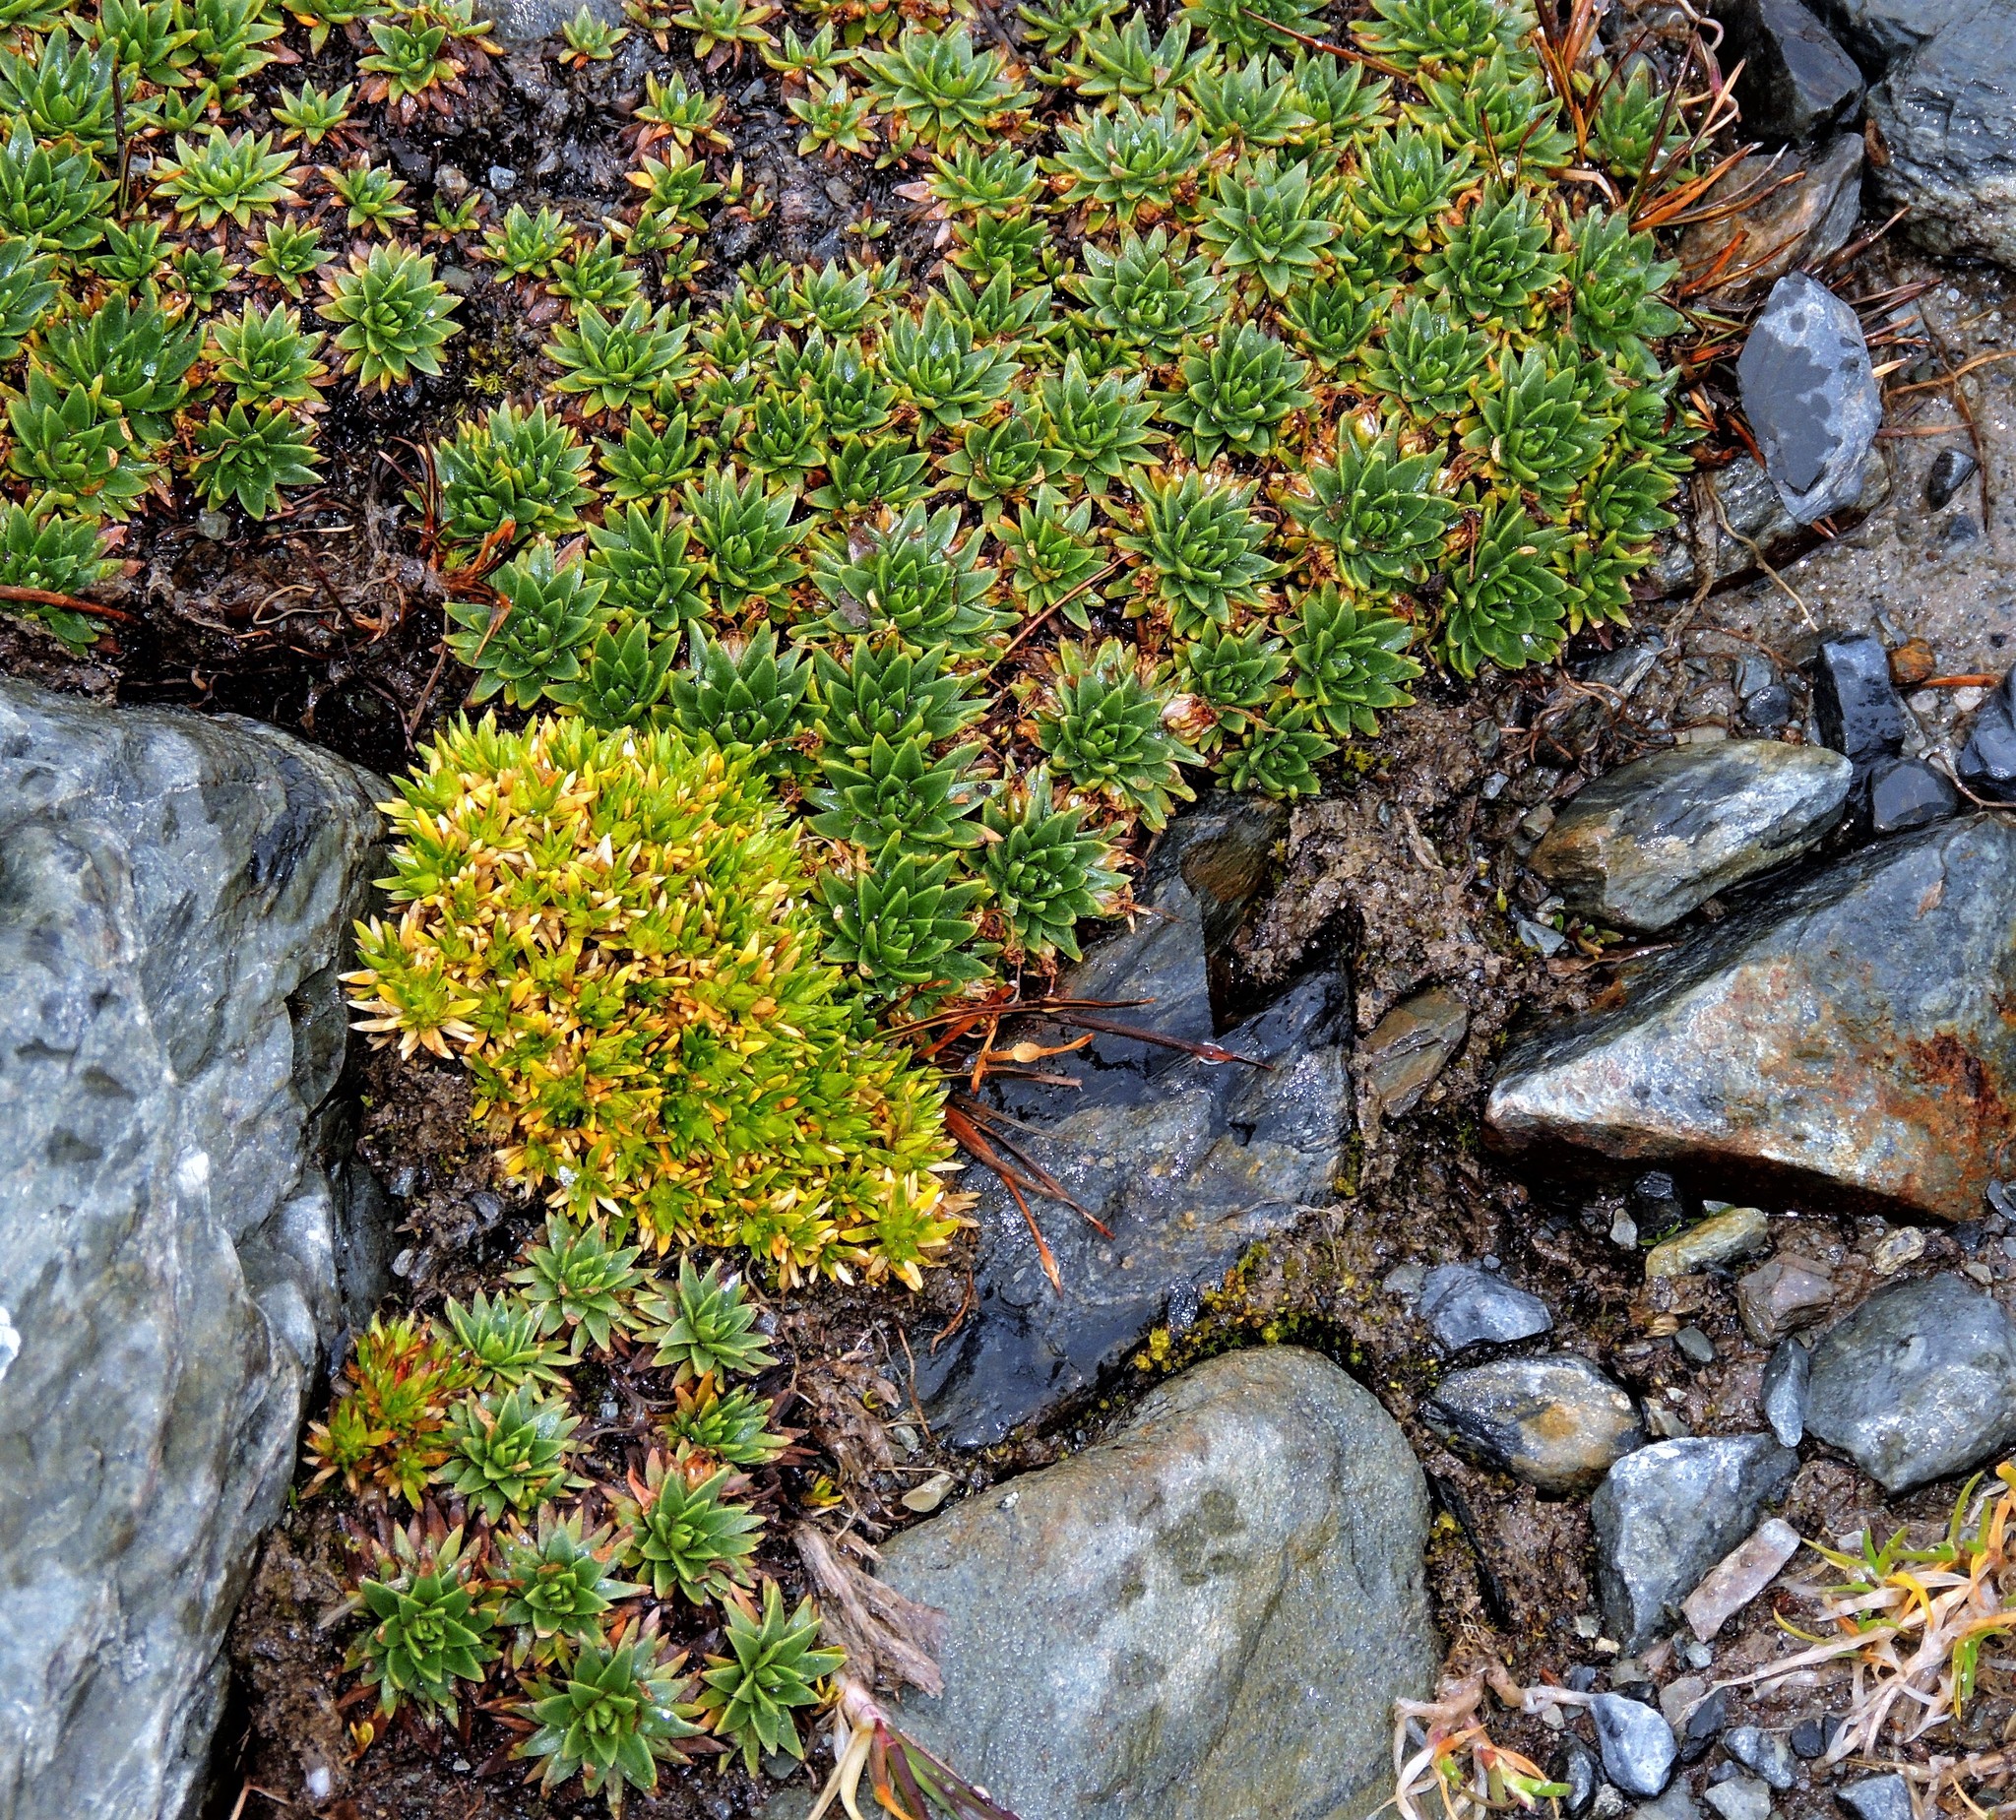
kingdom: Plantae
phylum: Tracheophyta
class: Magnoliopsida
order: Lamiales
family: Plantaginaceae
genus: Plantago
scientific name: Plantago barbata
